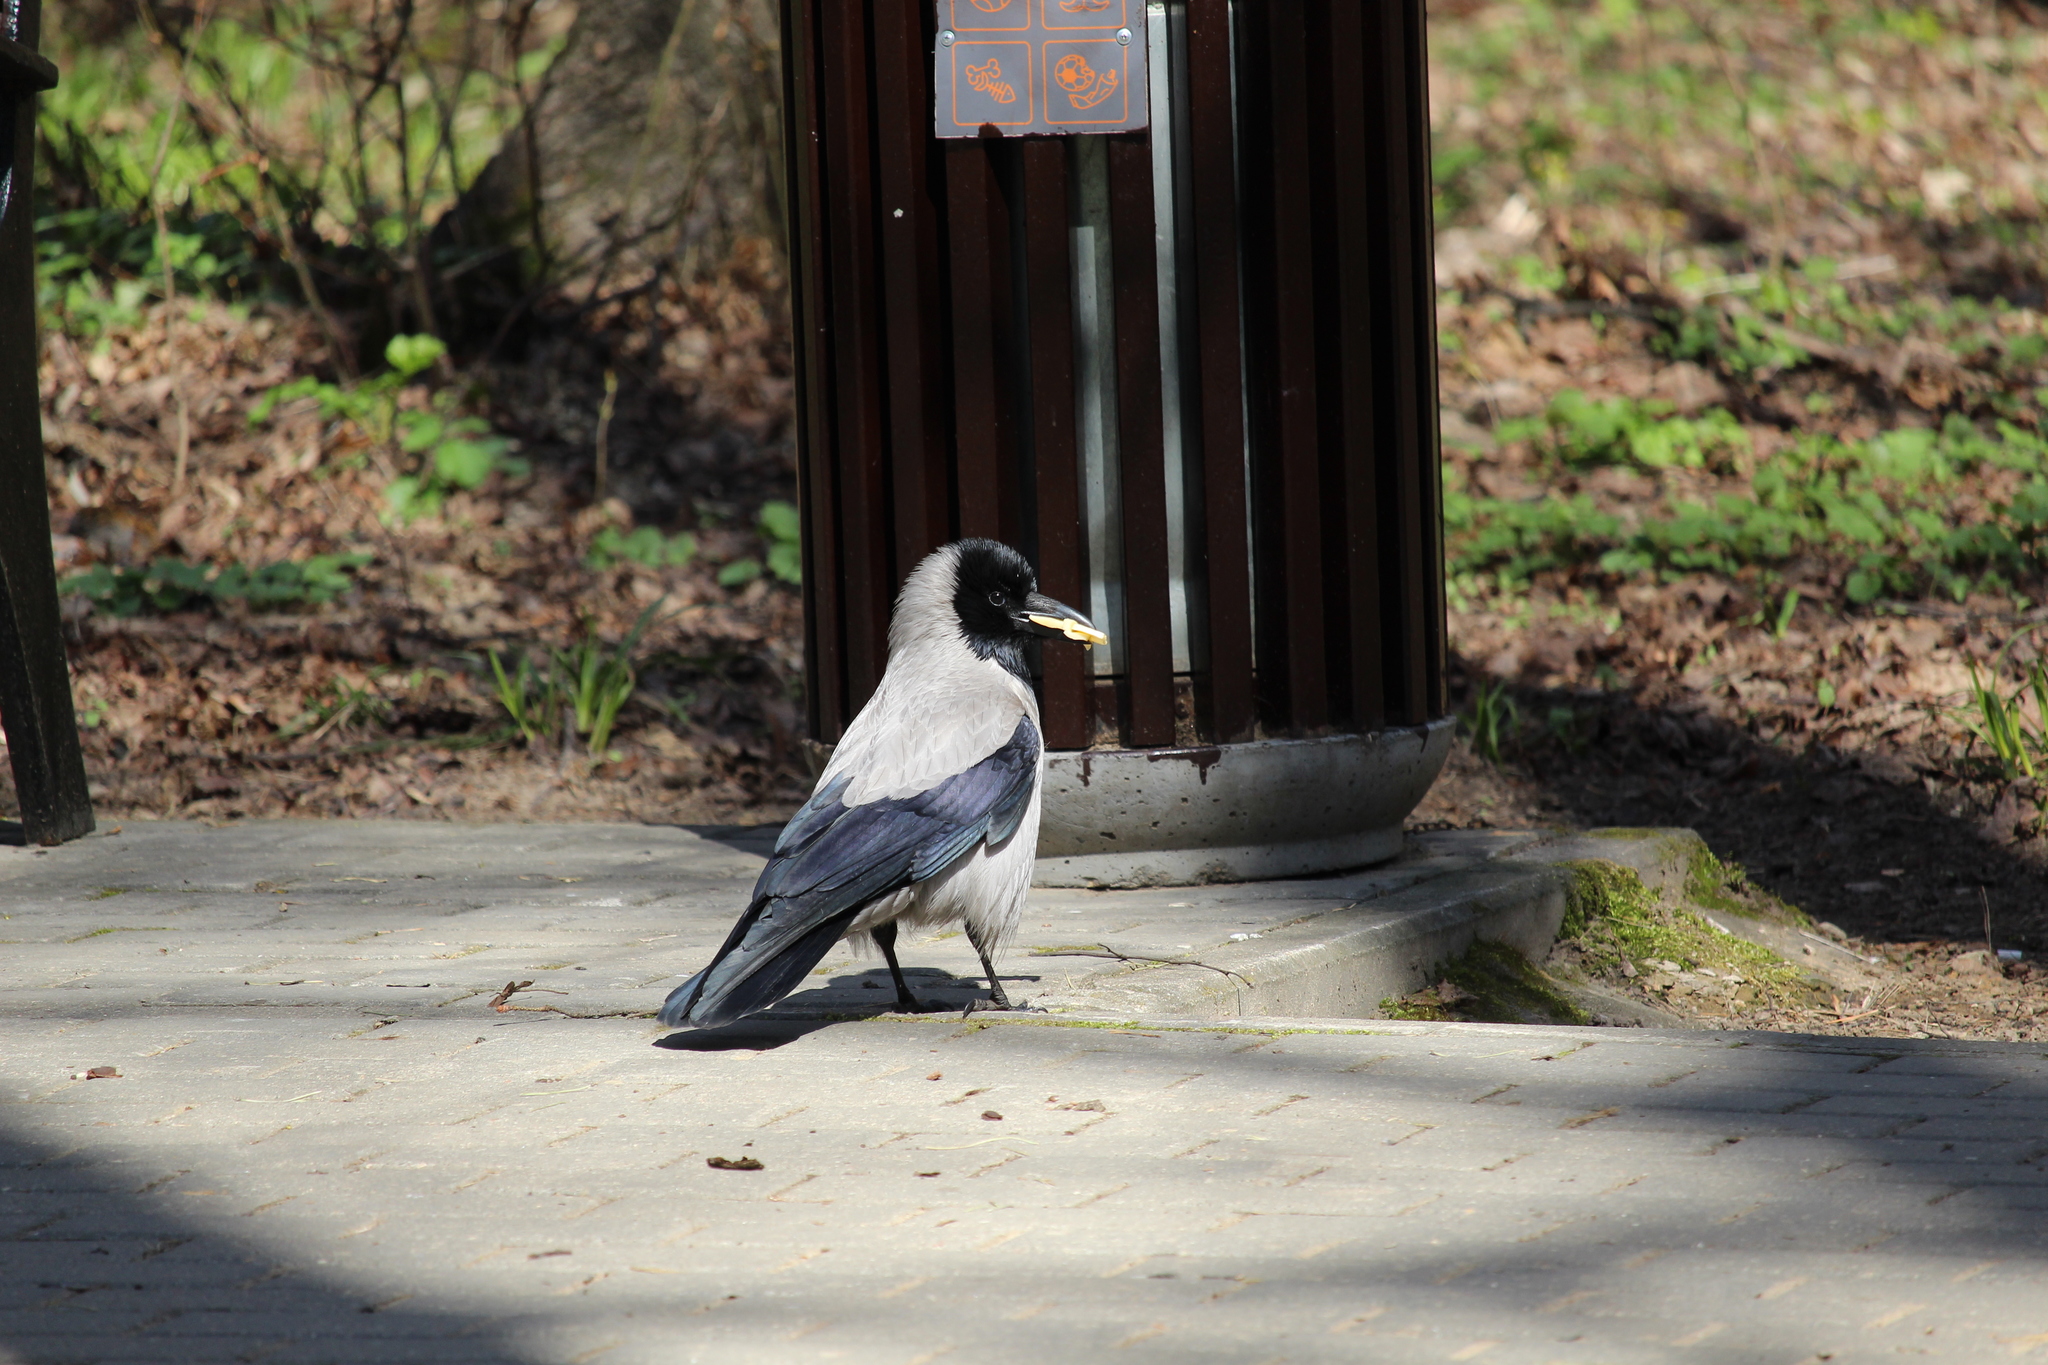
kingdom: Animalia
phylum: Chordata
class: Aves
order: Passeriformes
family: Corvidae
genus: Corvus
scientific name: Corvus cornix
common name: Hooded crow
